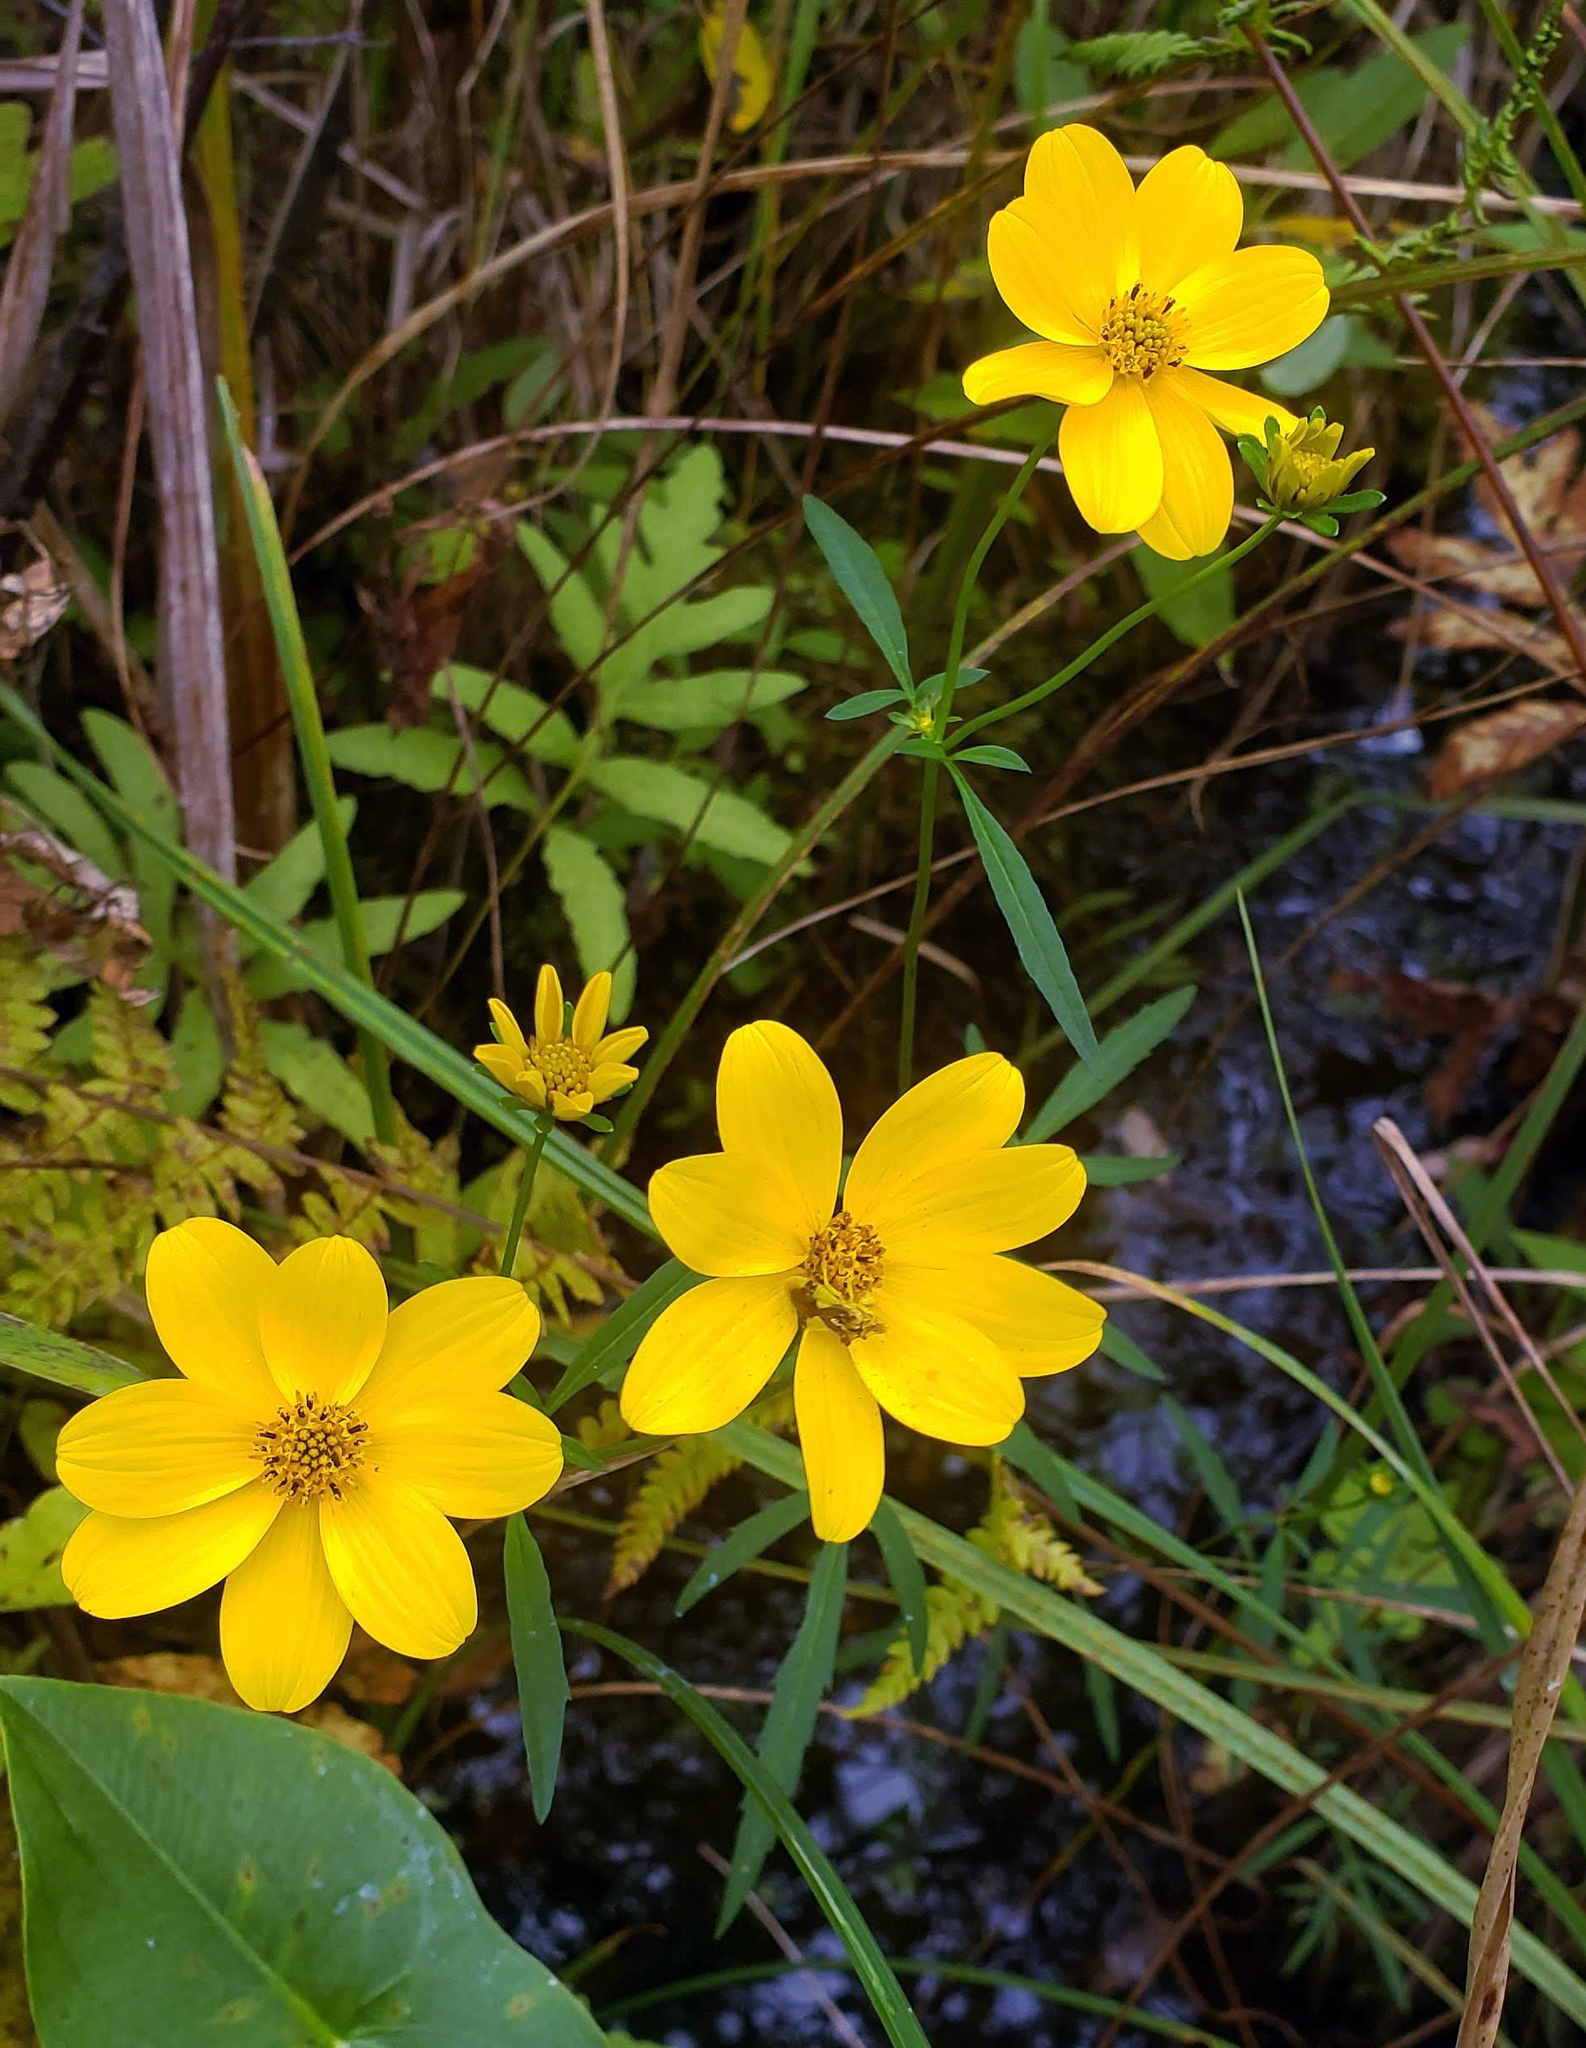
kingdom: Plantae
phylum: Tracheophyta
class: Magnoliopsida
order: Asterales
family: Asteraceae
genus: Bidens
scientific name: Bidens trichosperma
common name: Crowned beggarticks
